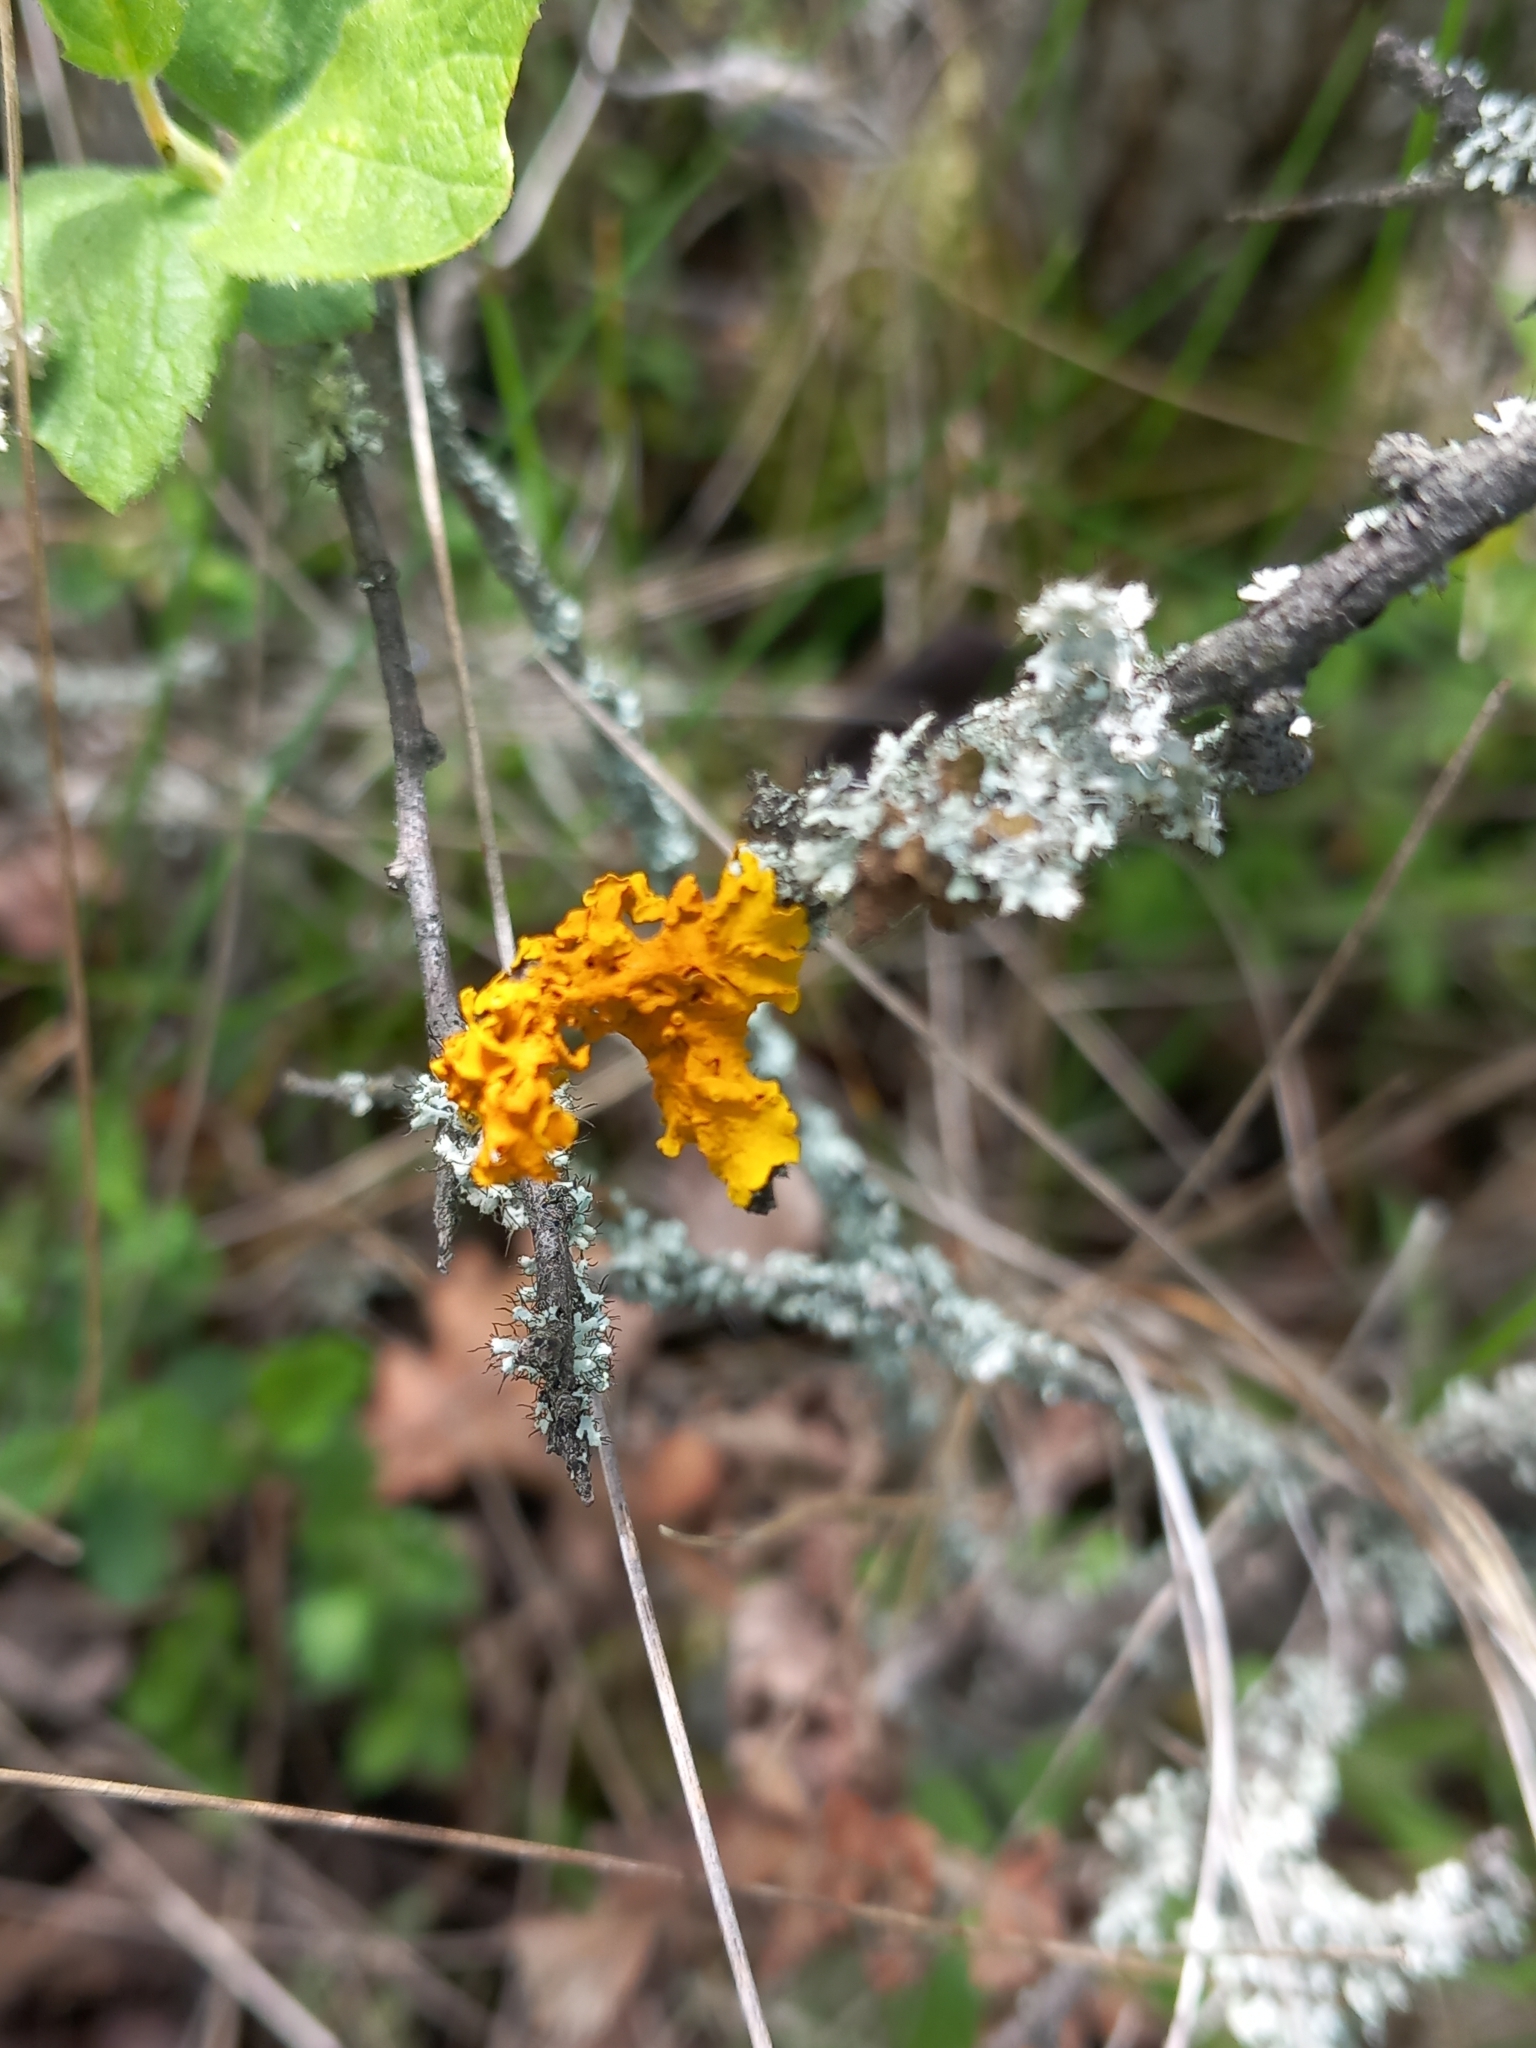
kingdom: Fungi
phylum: Ascomycota
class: Lecanoromycetes
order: Teloschistales
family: Teloschistaceae
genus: Xanthoria
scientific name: Xanthoria parietina
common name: Common orange lichen
